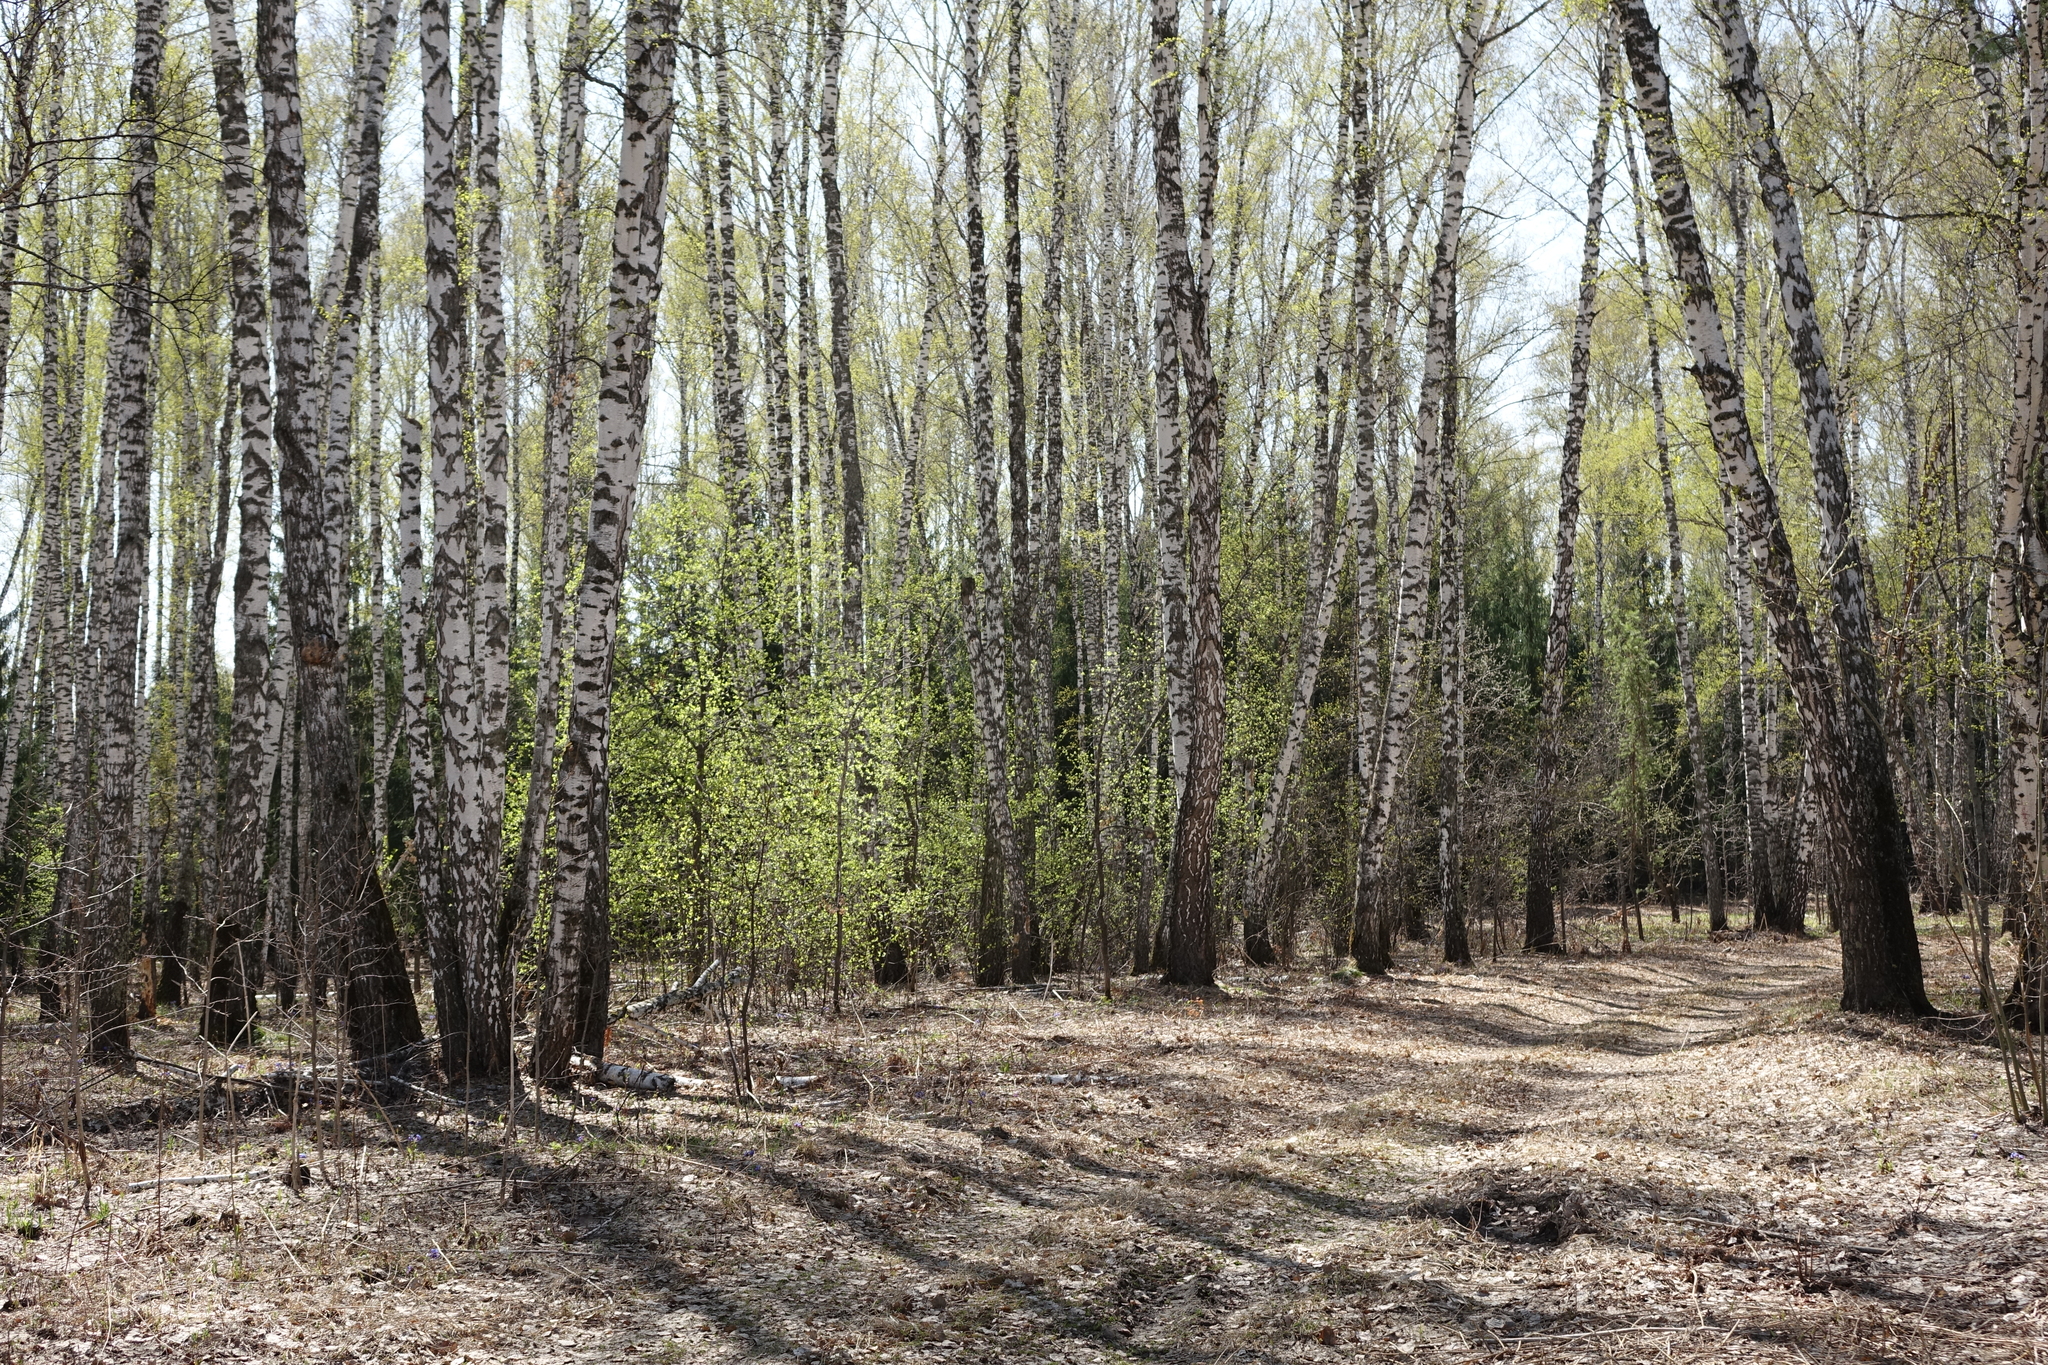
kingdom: Plantae
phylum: Tracheophyta
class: Magnoliopsida
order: Fagales
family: Betulaceae
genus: Betula
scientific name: Betula pendula
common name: Silver birch
